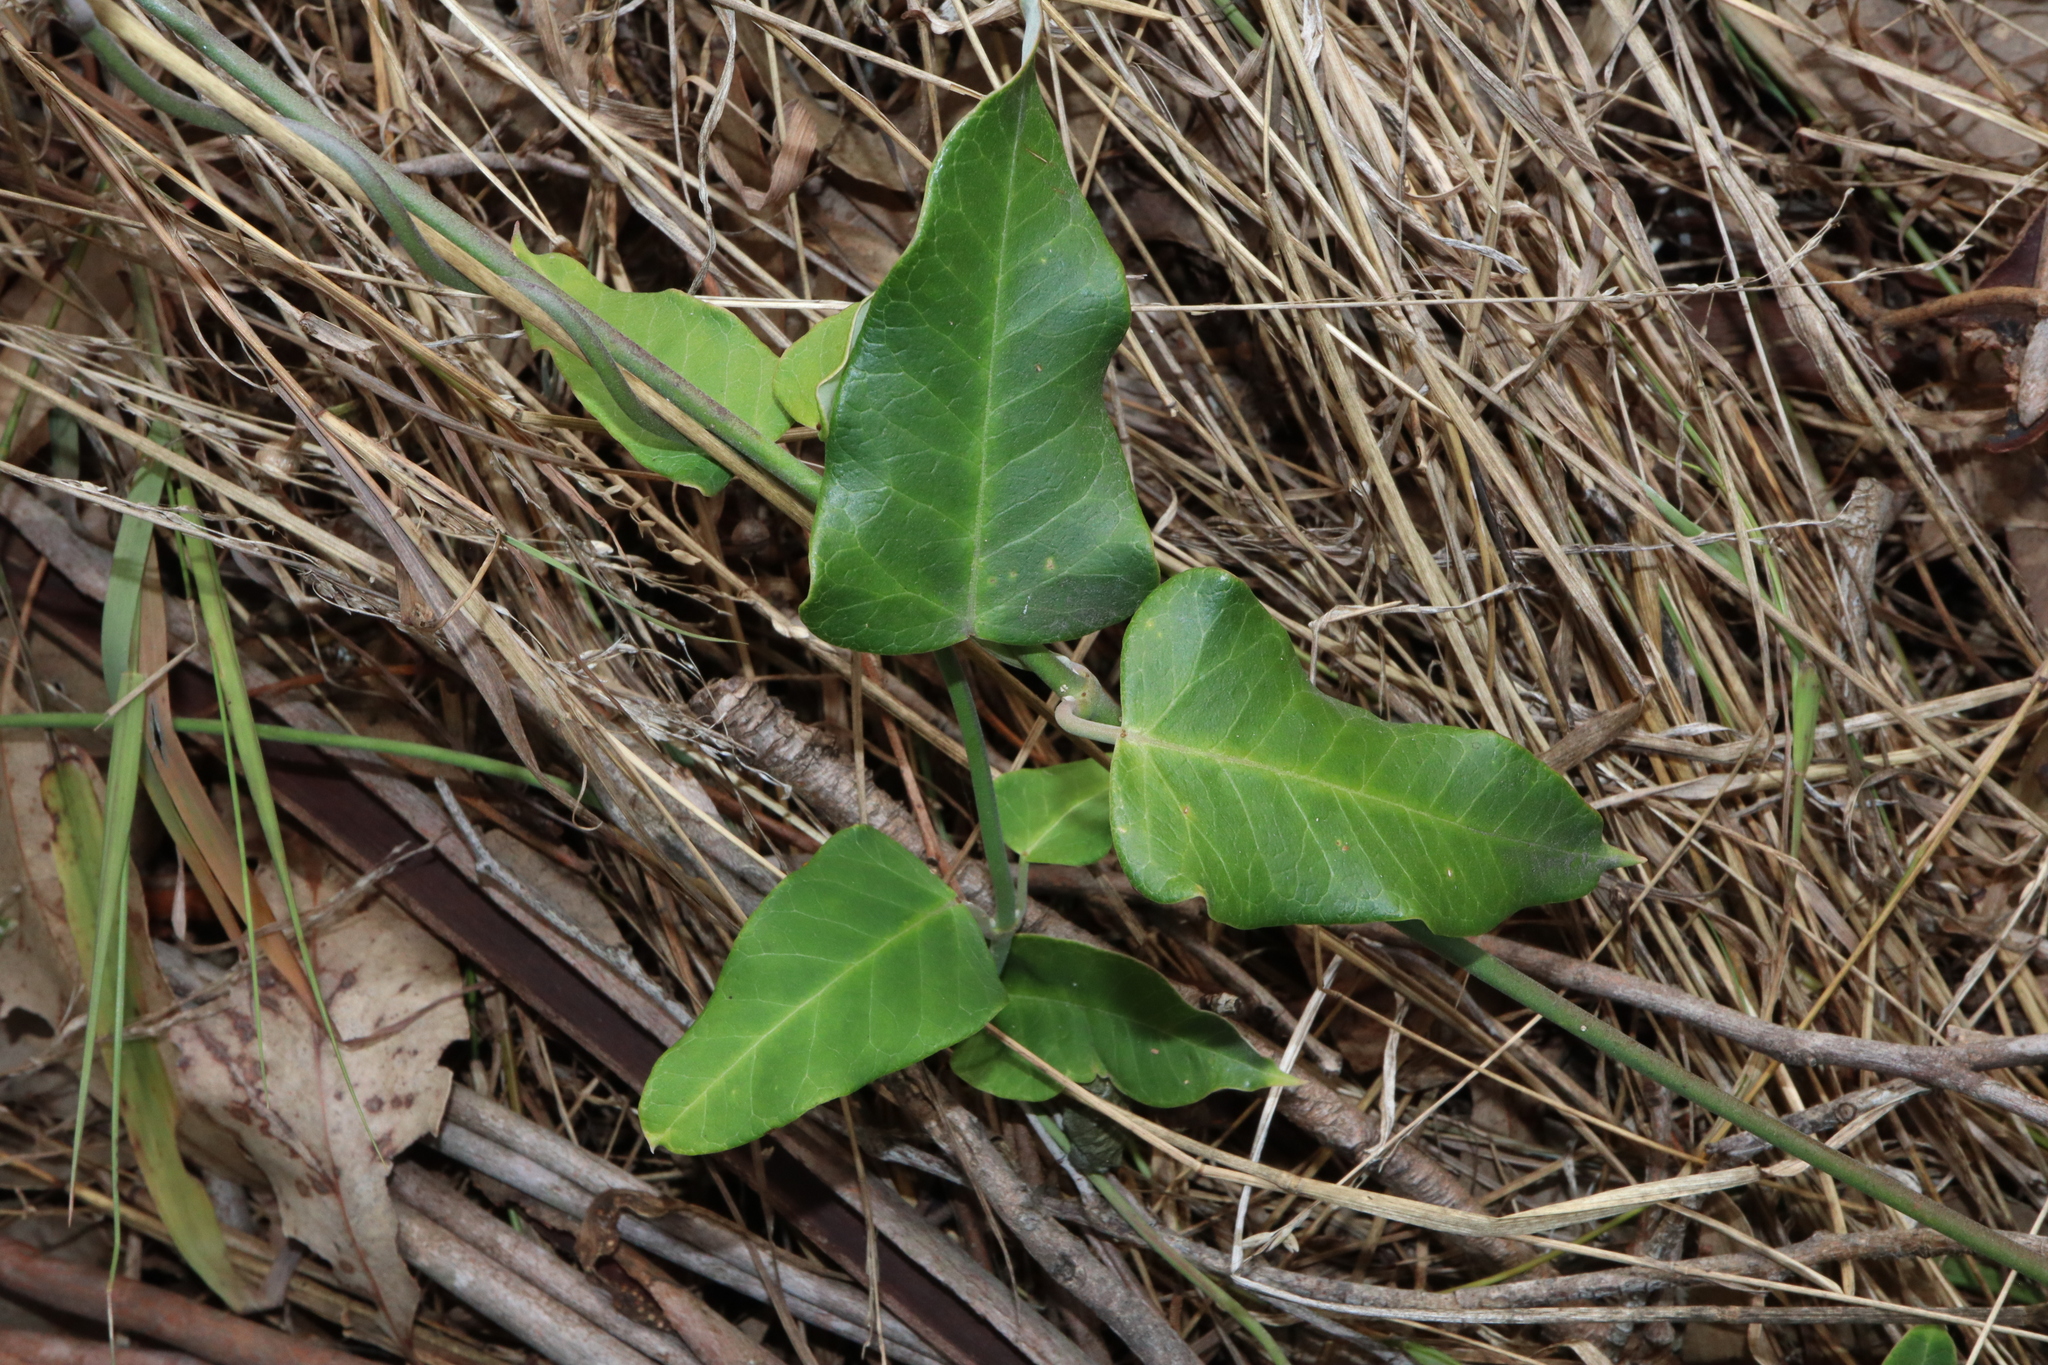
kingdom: Plantae
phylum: Tracheophyta
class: Magnoliopsida
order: Gentianales
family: Apocynaceae
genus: Araujia
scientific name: Araujia sericifera
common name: White bladderflower
